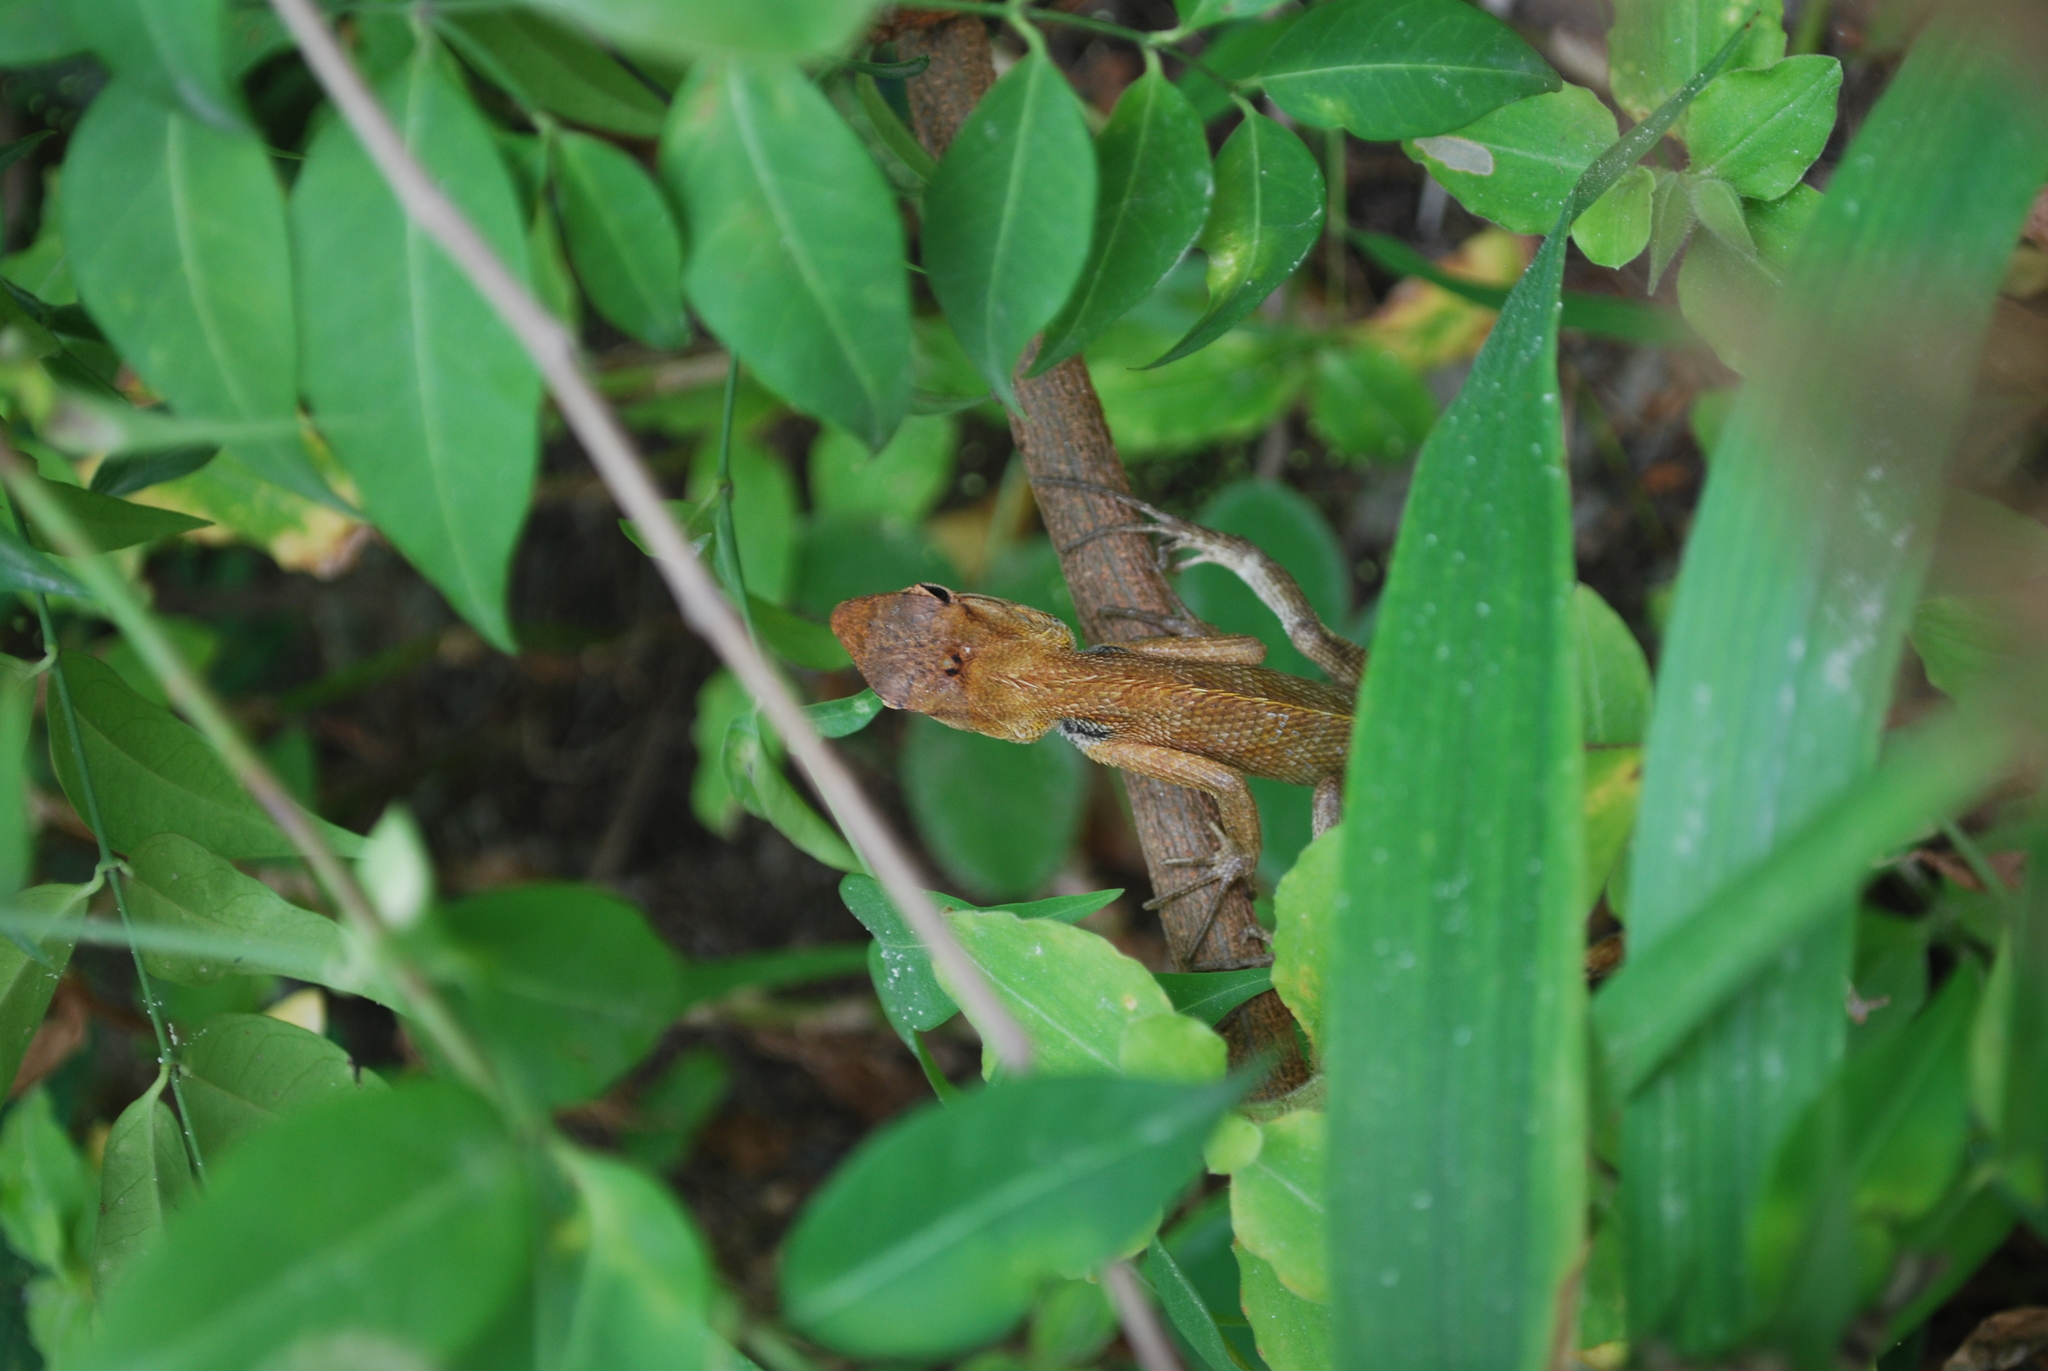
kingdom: Animalia
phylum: Chordata
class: Squamata
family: Agamidae
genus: Calotes
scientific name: Calotes versicolor
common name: Oriental garden lizard
